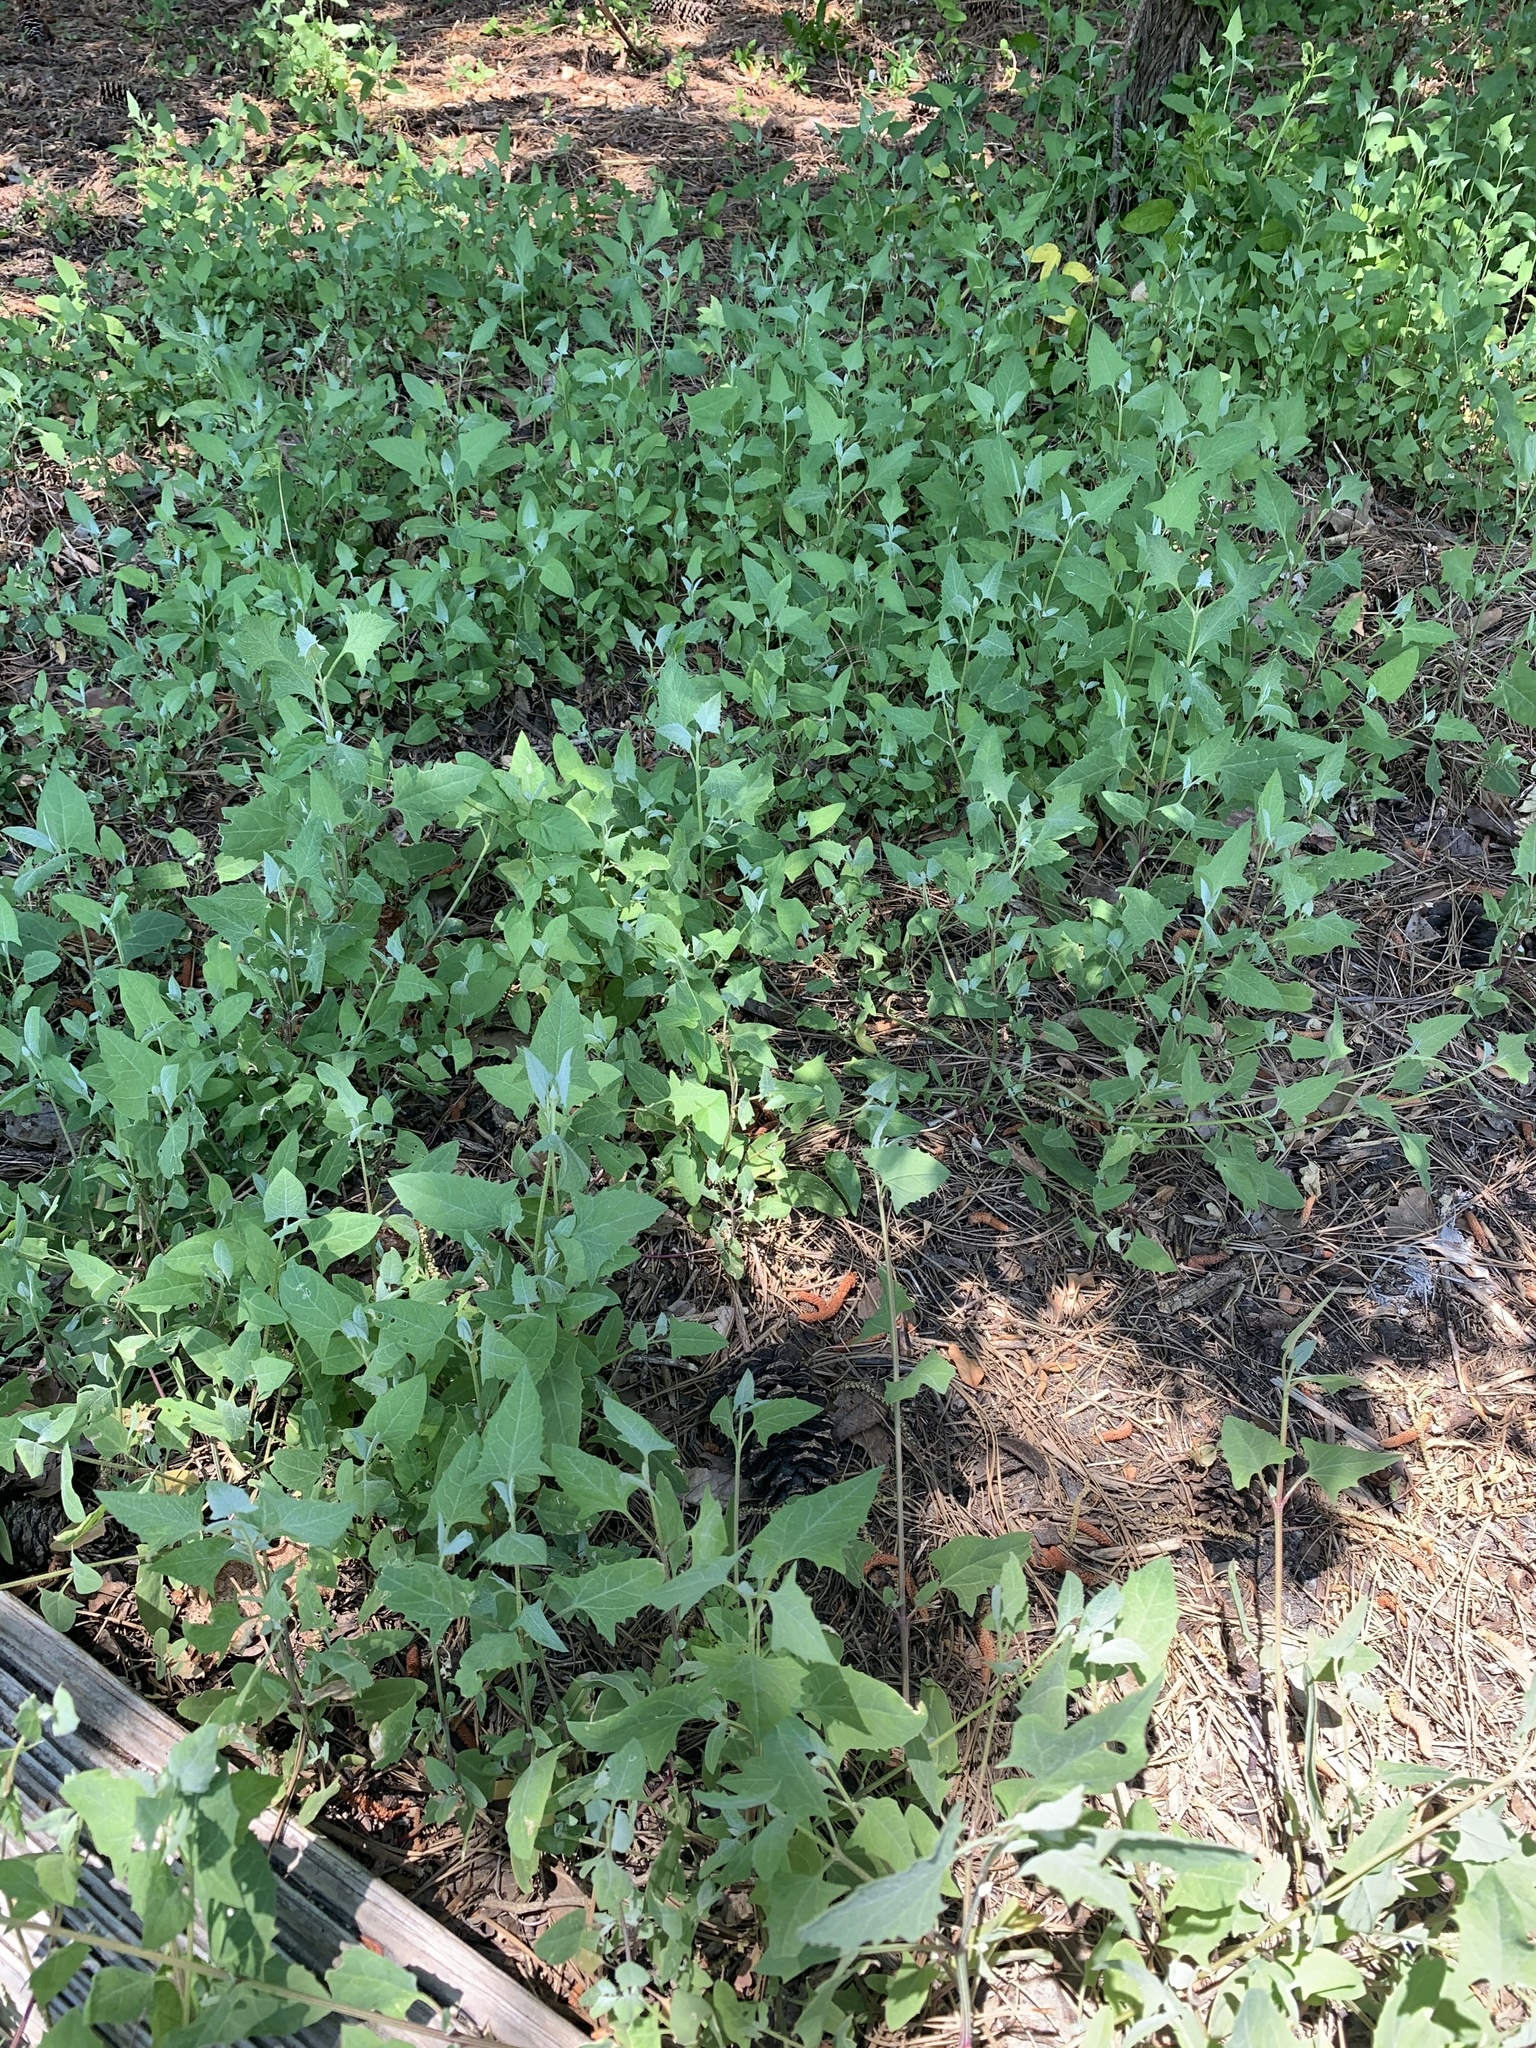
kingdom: Plantae
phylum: Tracheophyta
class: Magnoliopsida
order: Caryophyllales
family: Amaranthaceae
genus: Atriplex
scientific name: Atriplex prostrata
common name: Spear-leaved orache
